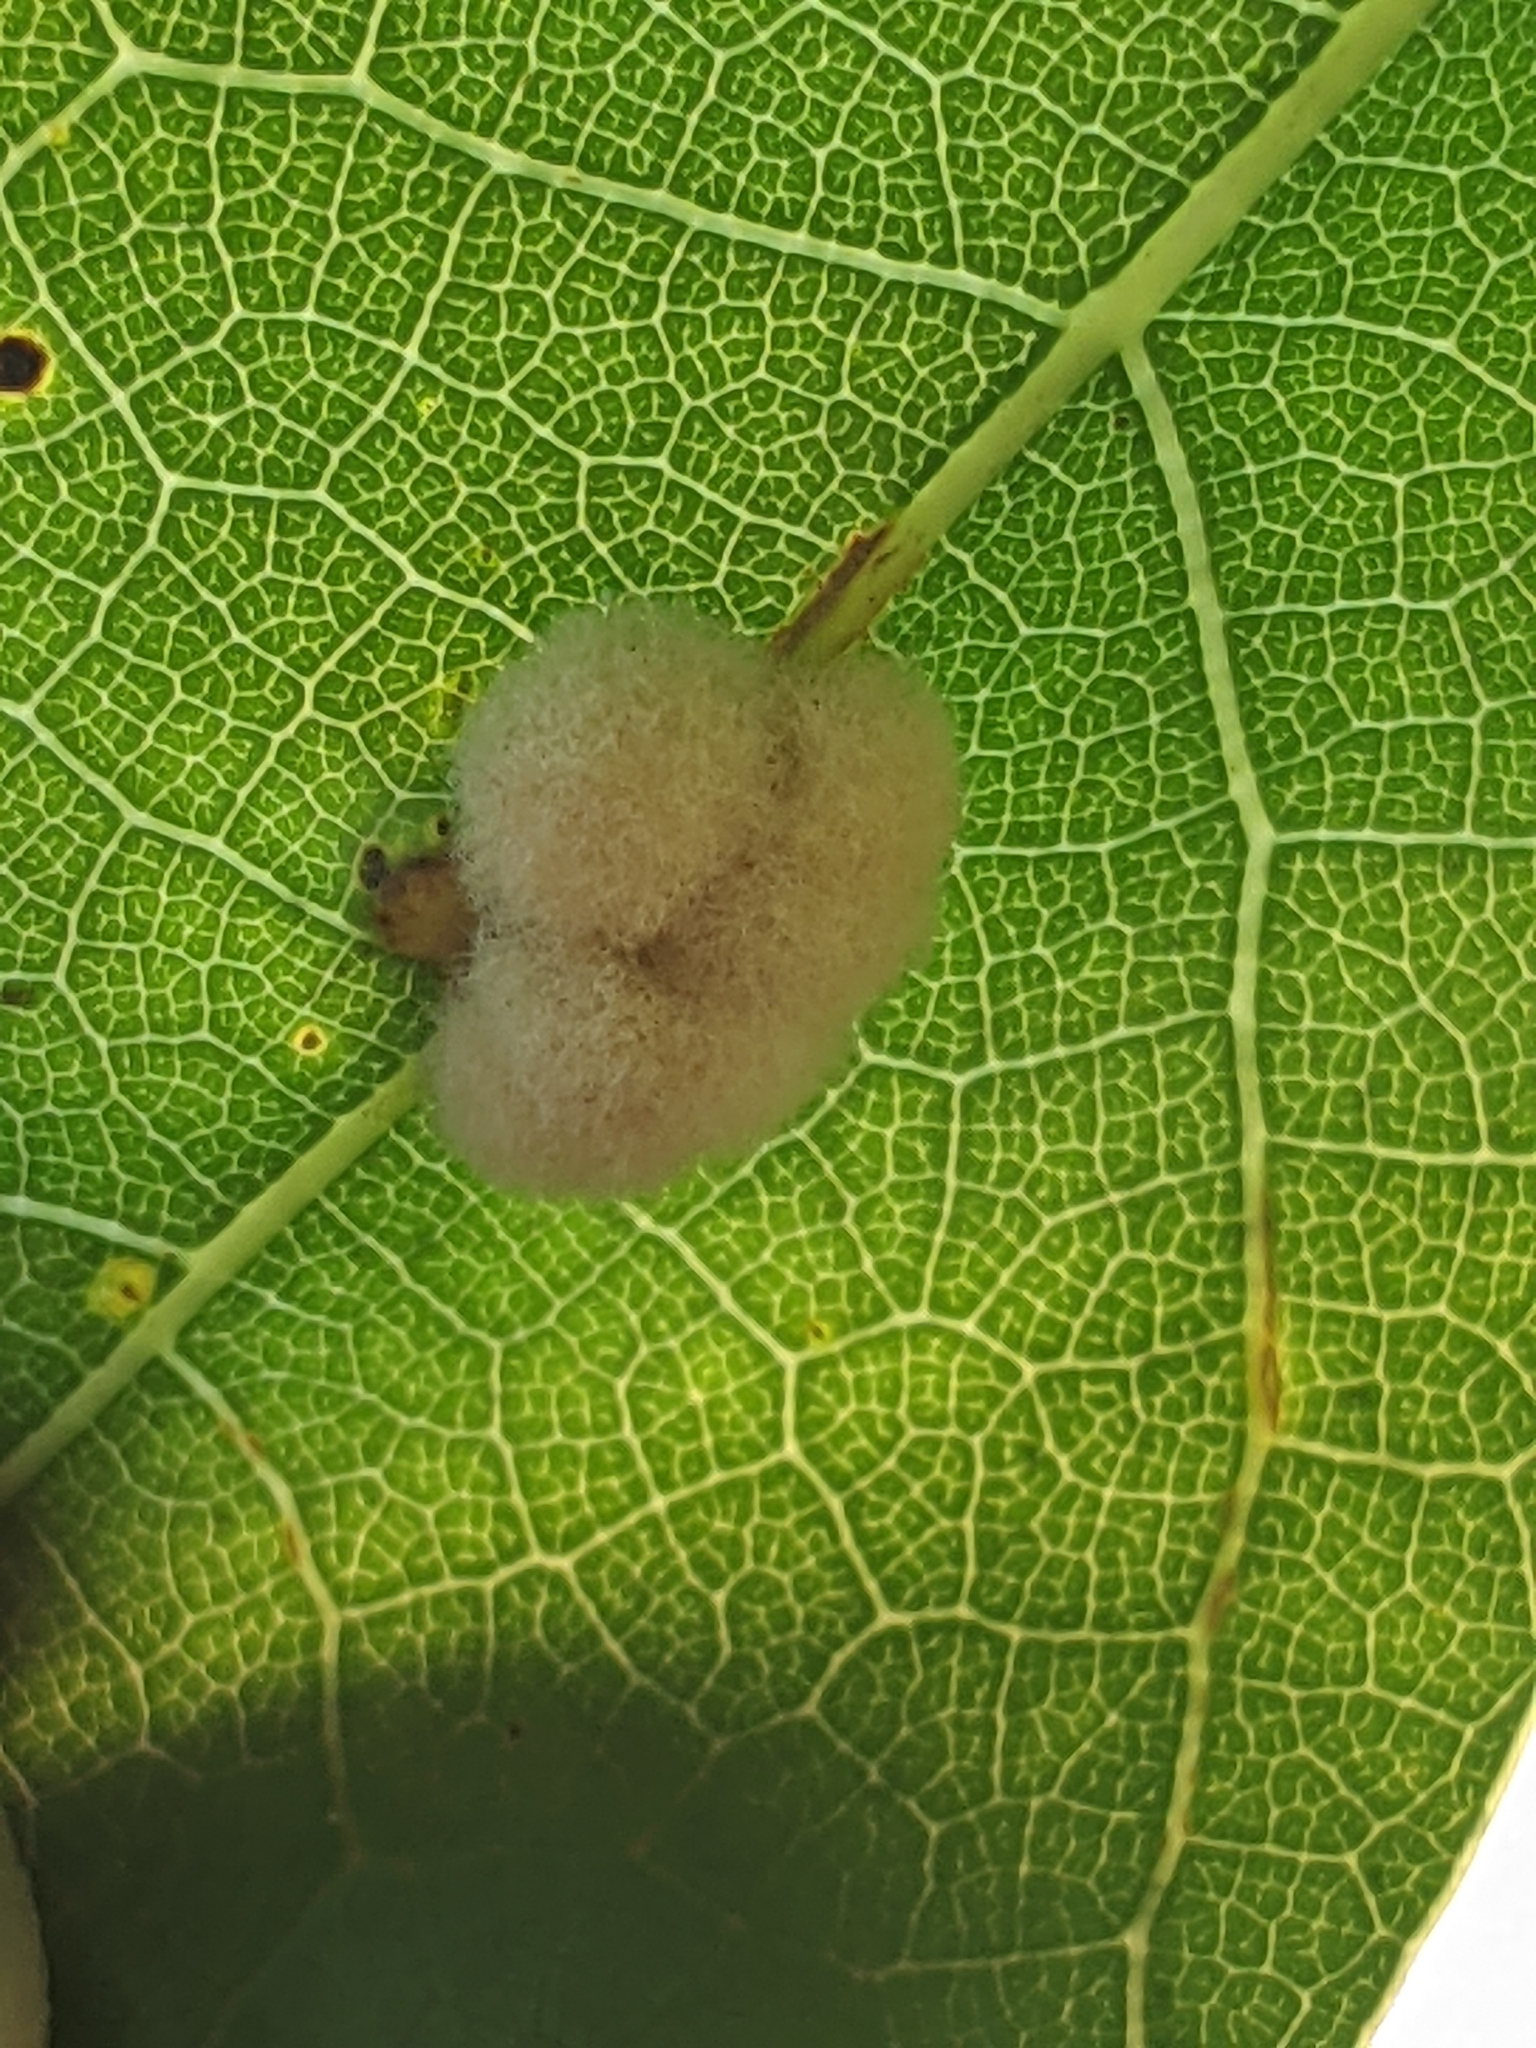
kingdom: Animalia
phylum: Arthropoda
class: Insecta
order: Hymenoptera
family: Cynipidae
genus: Callirhytis
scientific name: Callirhytis
